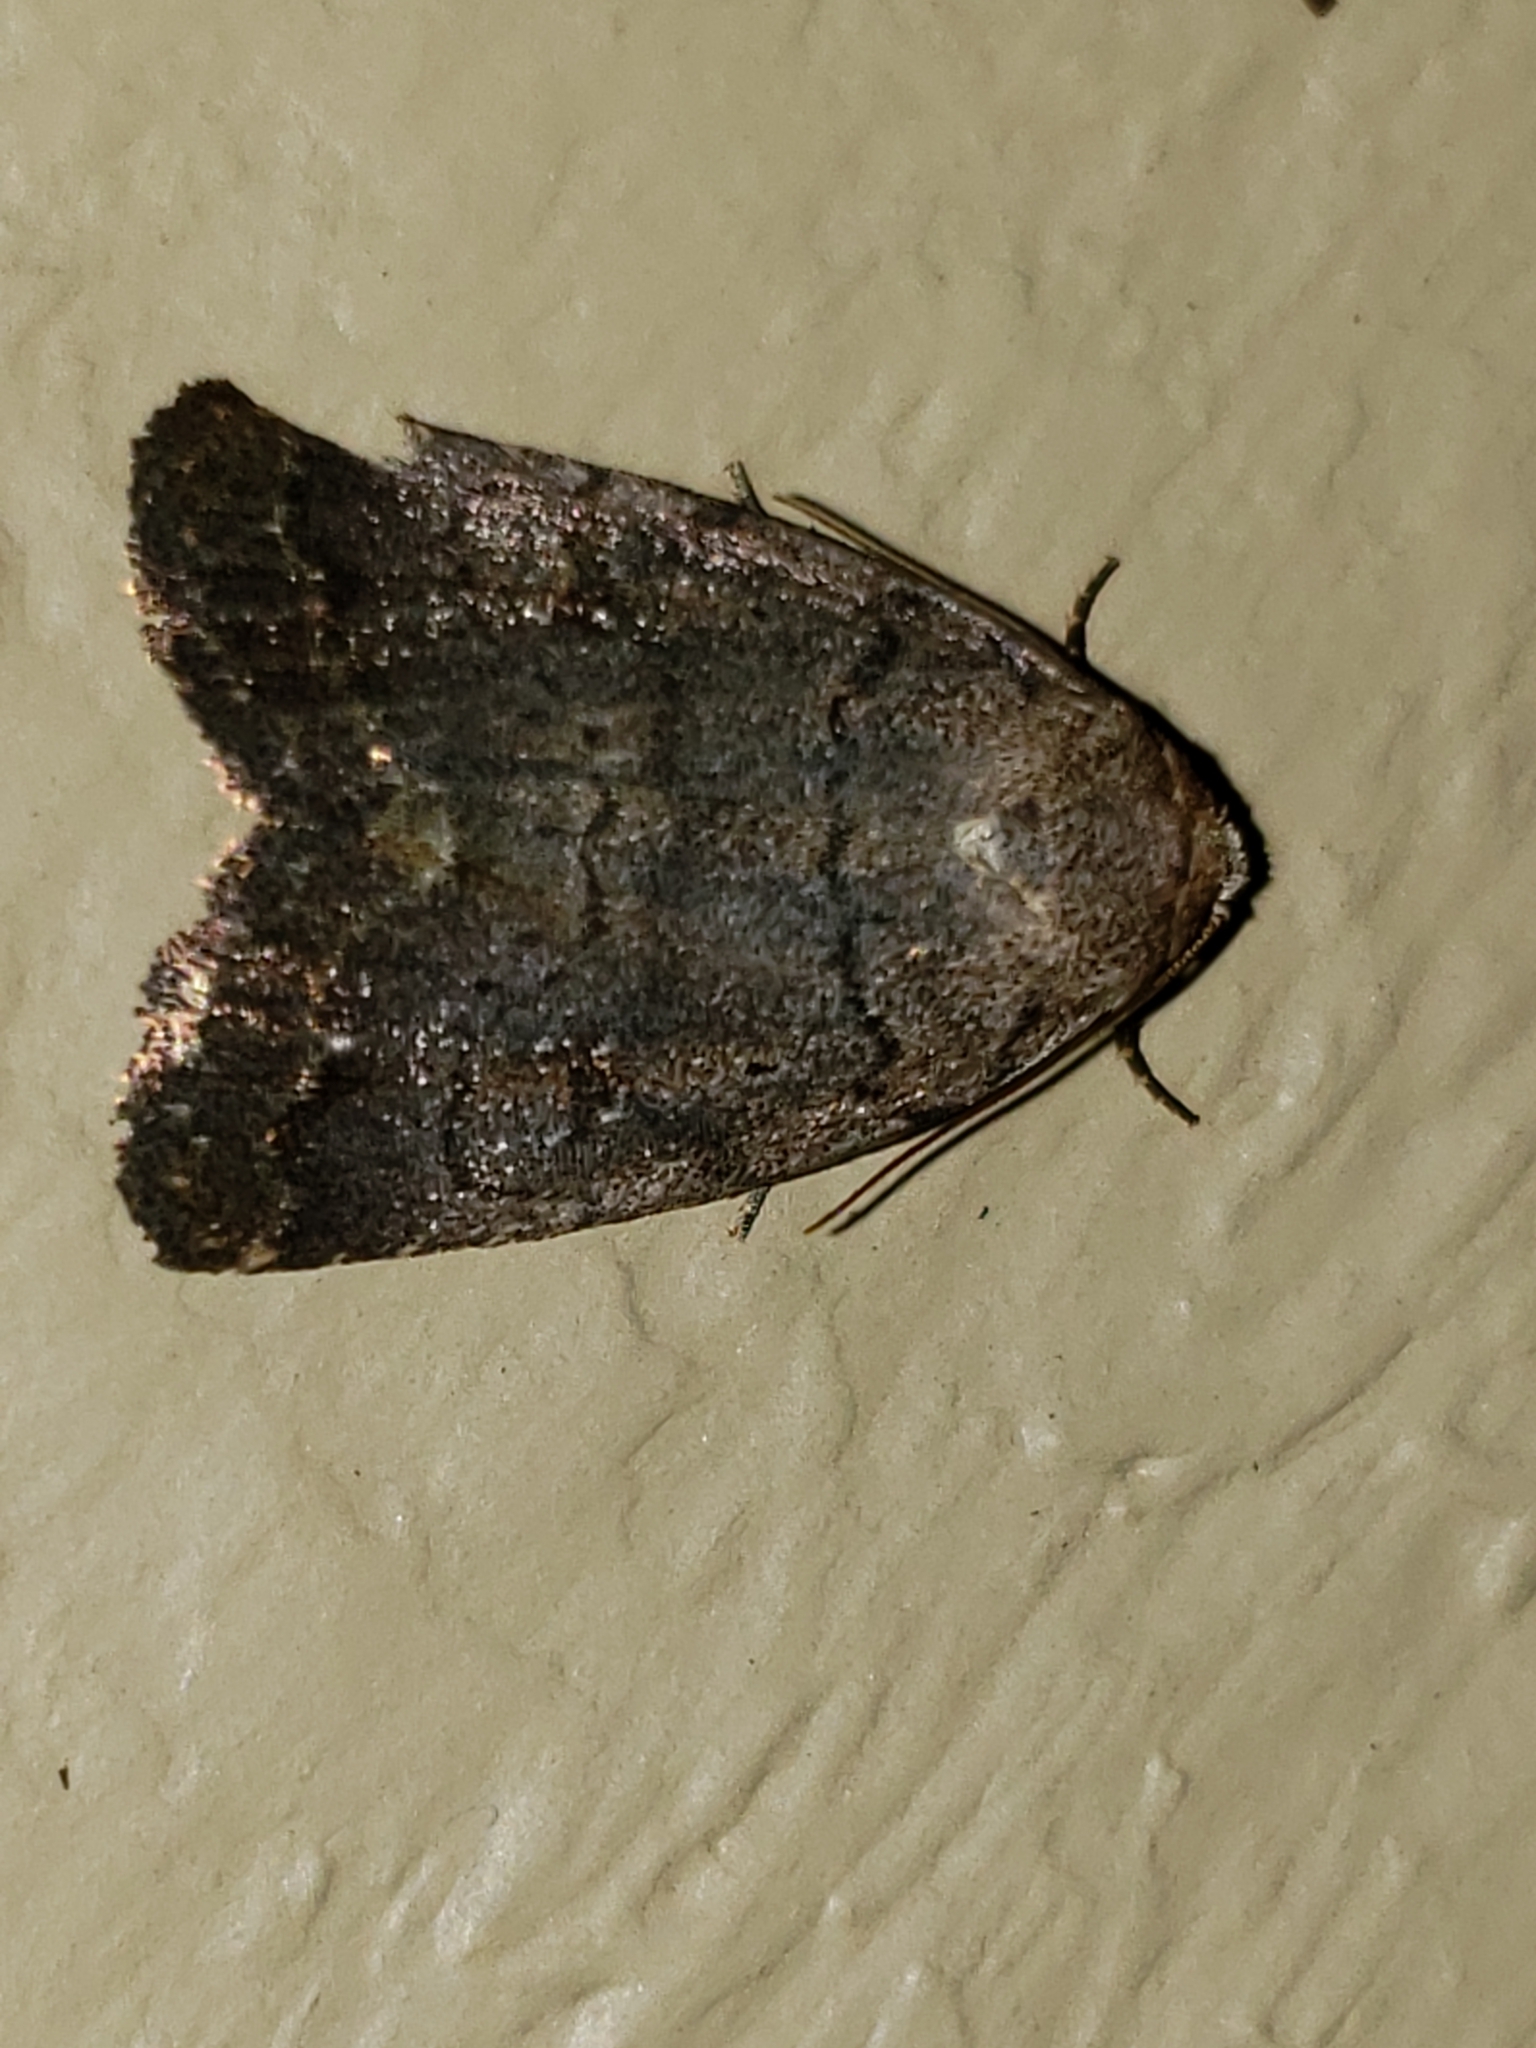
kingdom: Animalia
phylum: Arthropoda
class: Insecta
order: Lepidoptera
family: Noctuidae
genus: Athetis
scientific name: Athetis tarda
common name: Slowpoke moth
